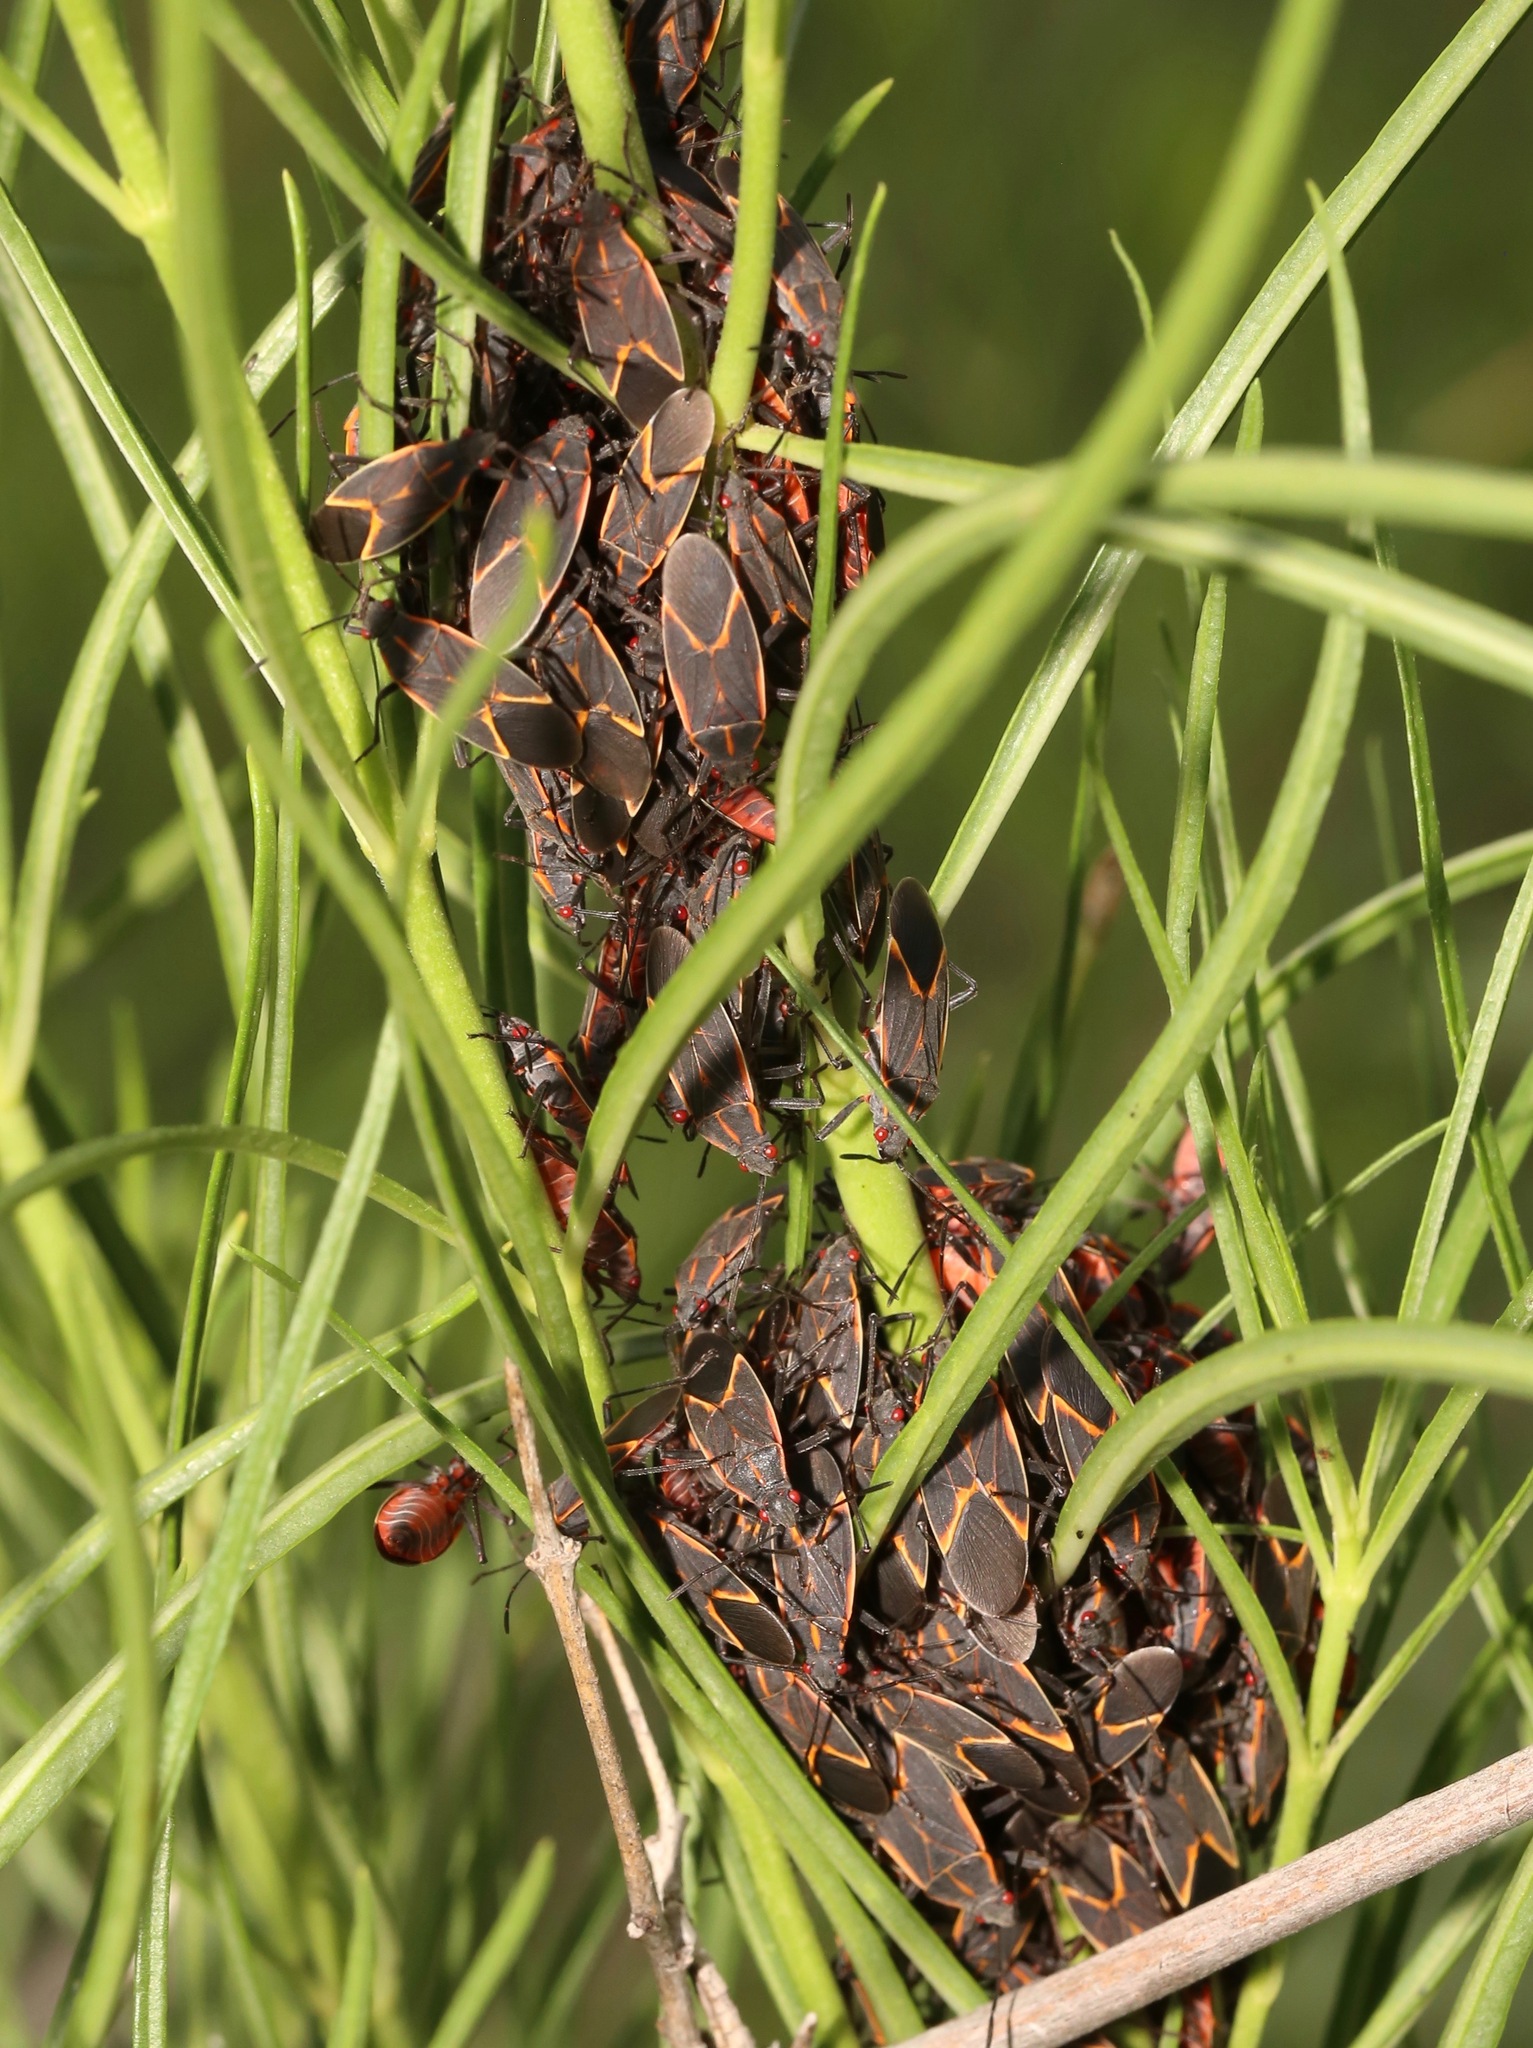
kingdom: Animalia
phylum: Arthropoda
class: Insecta
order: Hemiptera
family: Rhopalidae
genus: Boisea
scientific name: Boisea trivittata
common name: Boxelder bug
